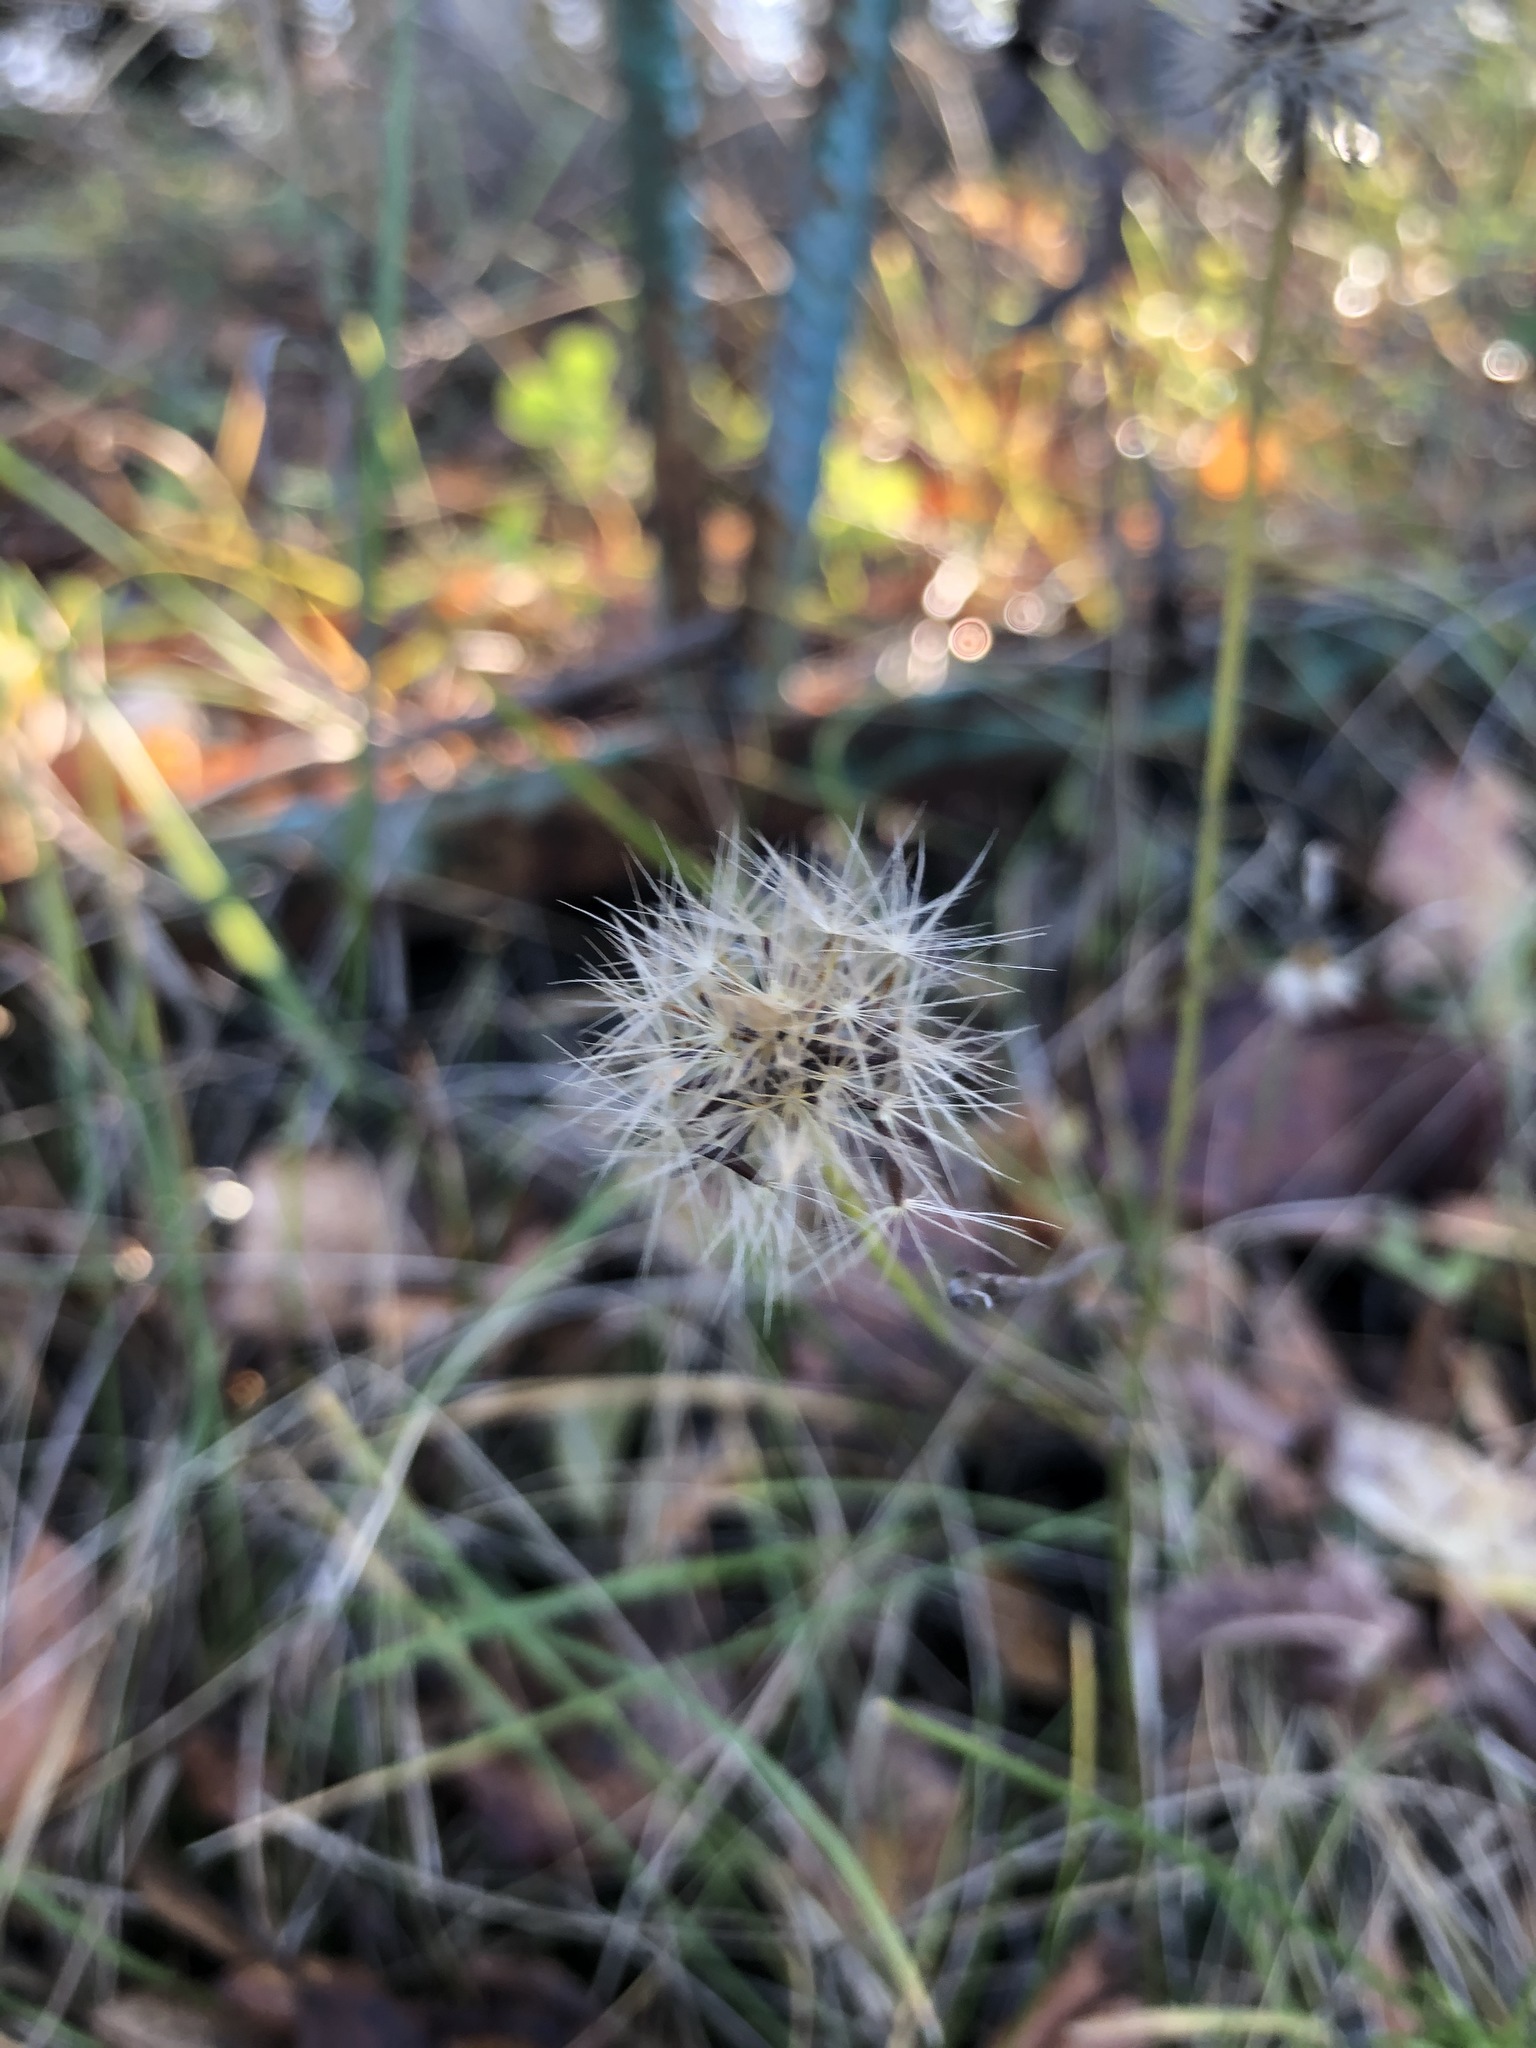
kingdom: Plantae
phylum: Tracheophyta
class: Magnoliopsida
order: Asterales
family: Asteraceae
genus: Scorzoneroides
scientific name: Scorzoneroides autumnalis
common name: Autumn hawkbit
